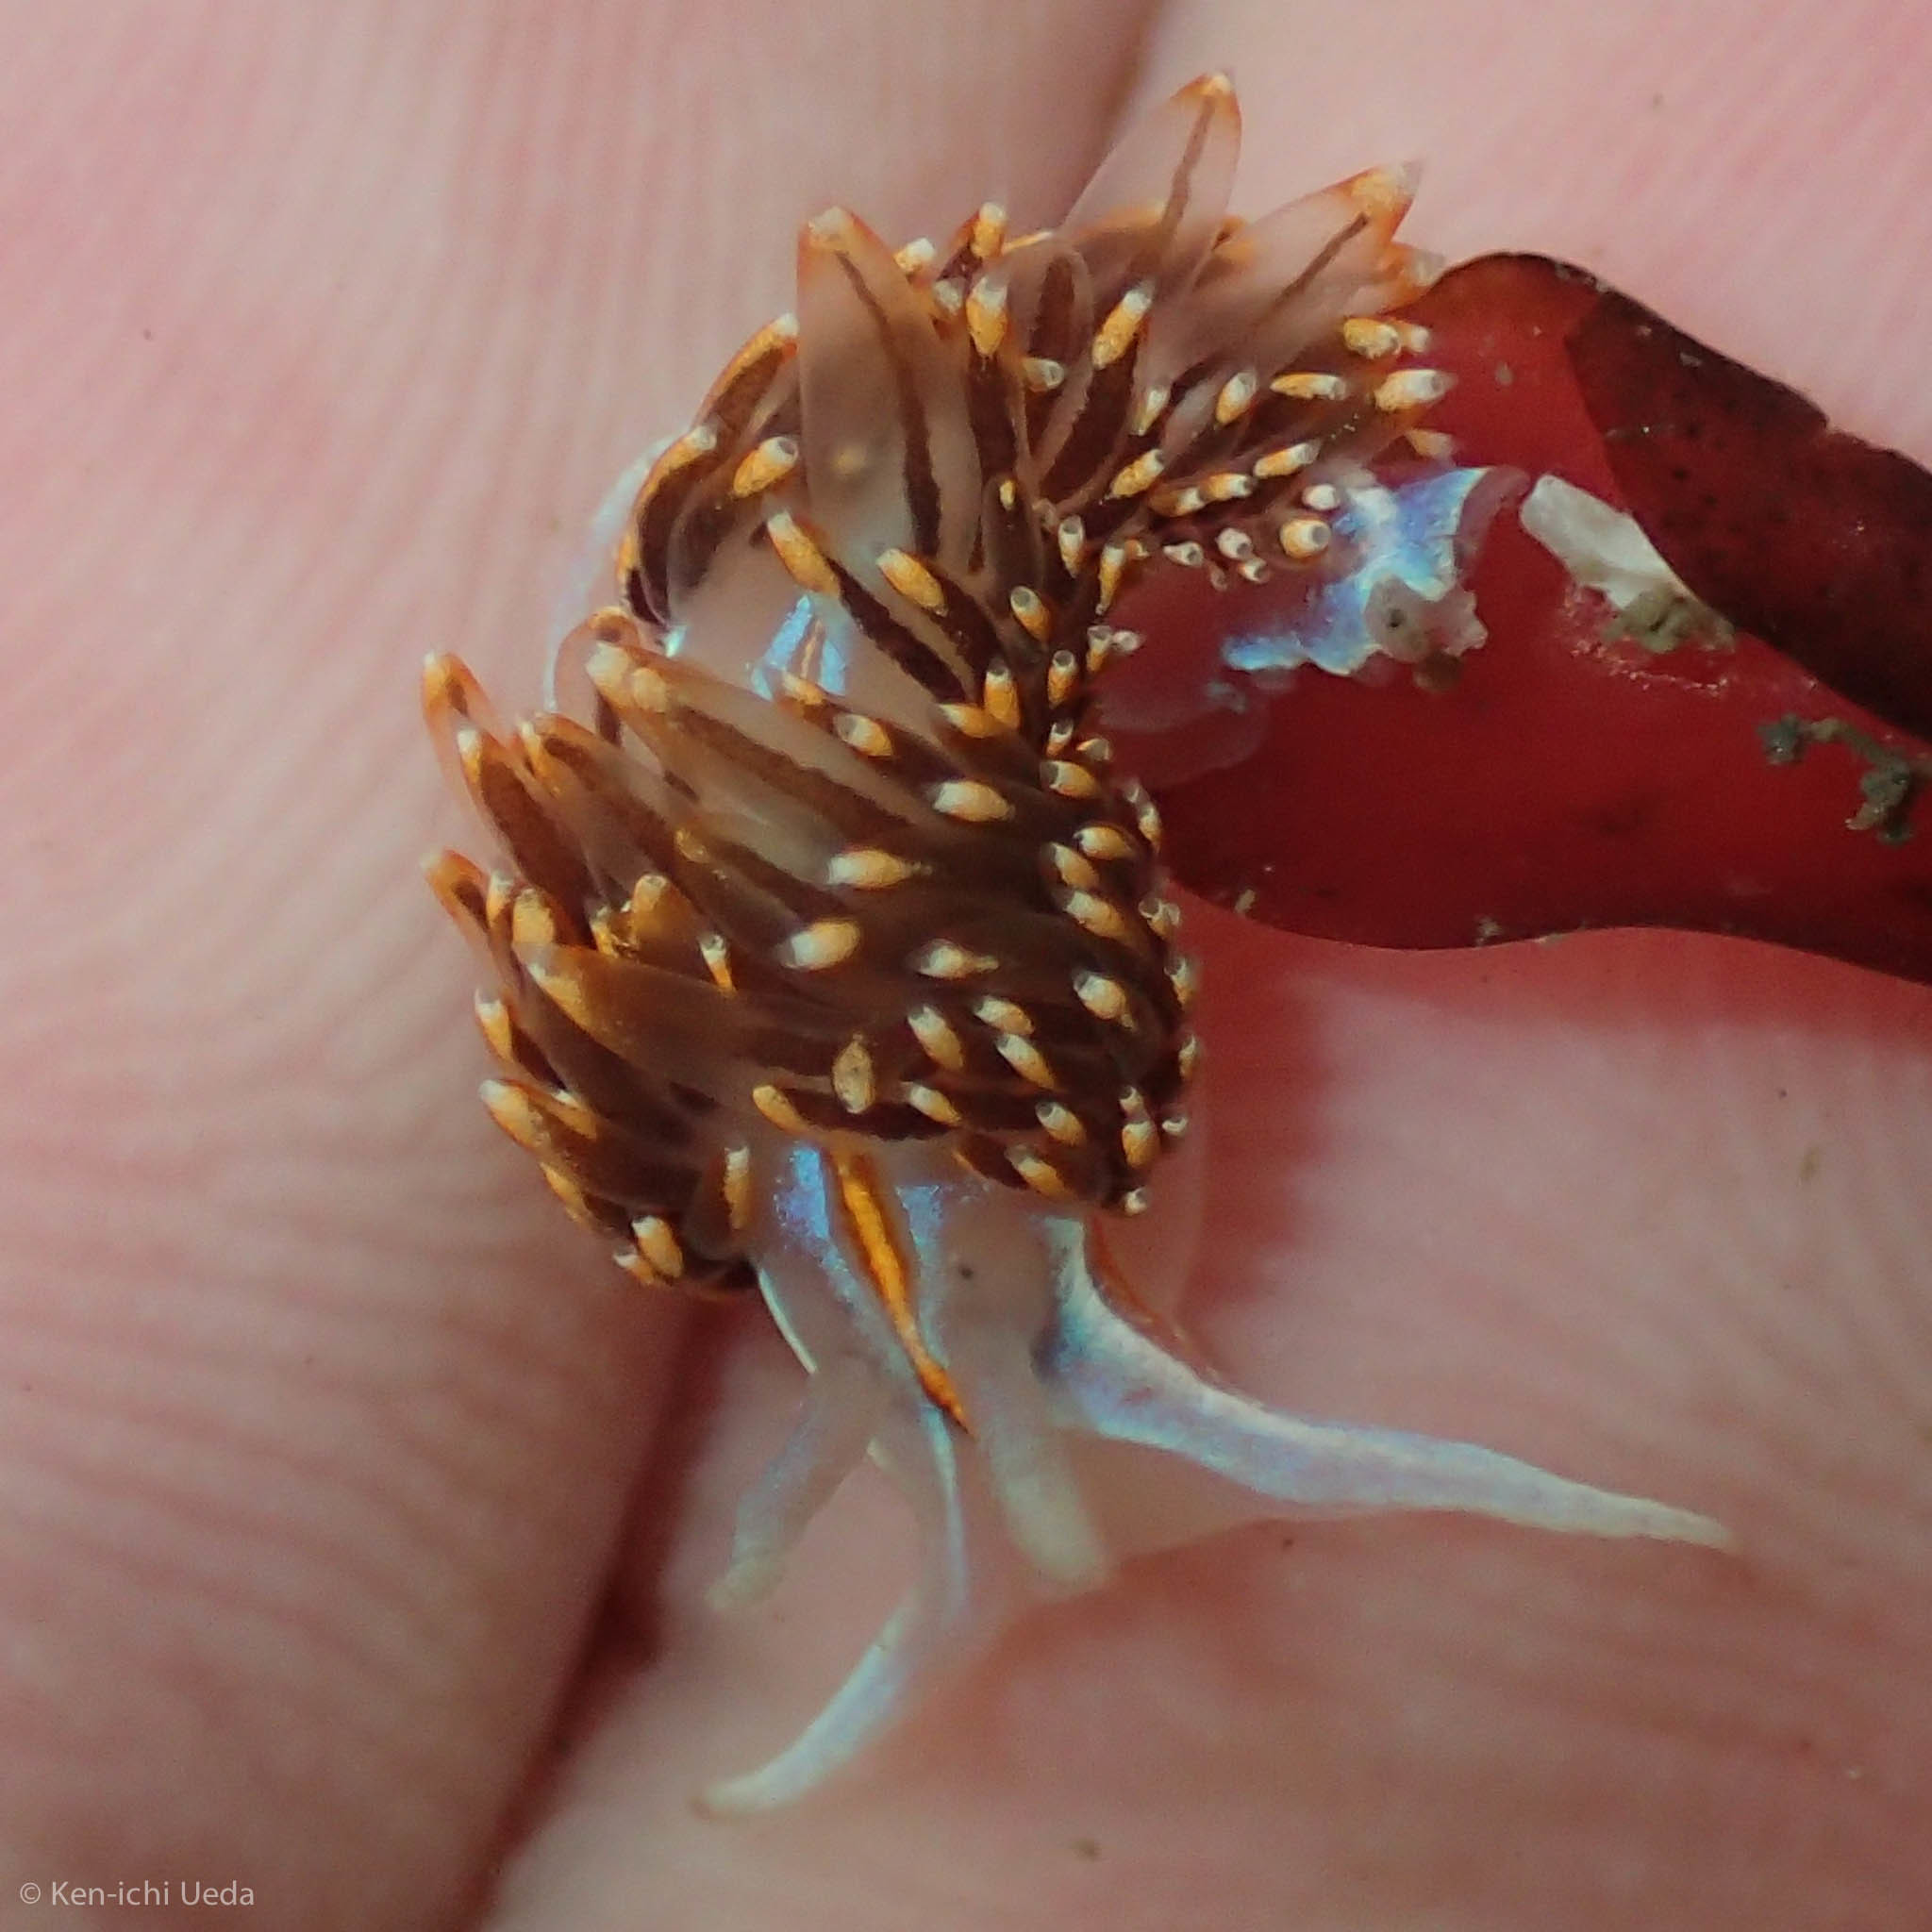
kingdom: Animalia
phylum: Mollusca
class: Gastropoda
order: Nudibranchia
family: Myrrhinidae
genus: Hermissenda
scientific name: Hermissenda opalescens
